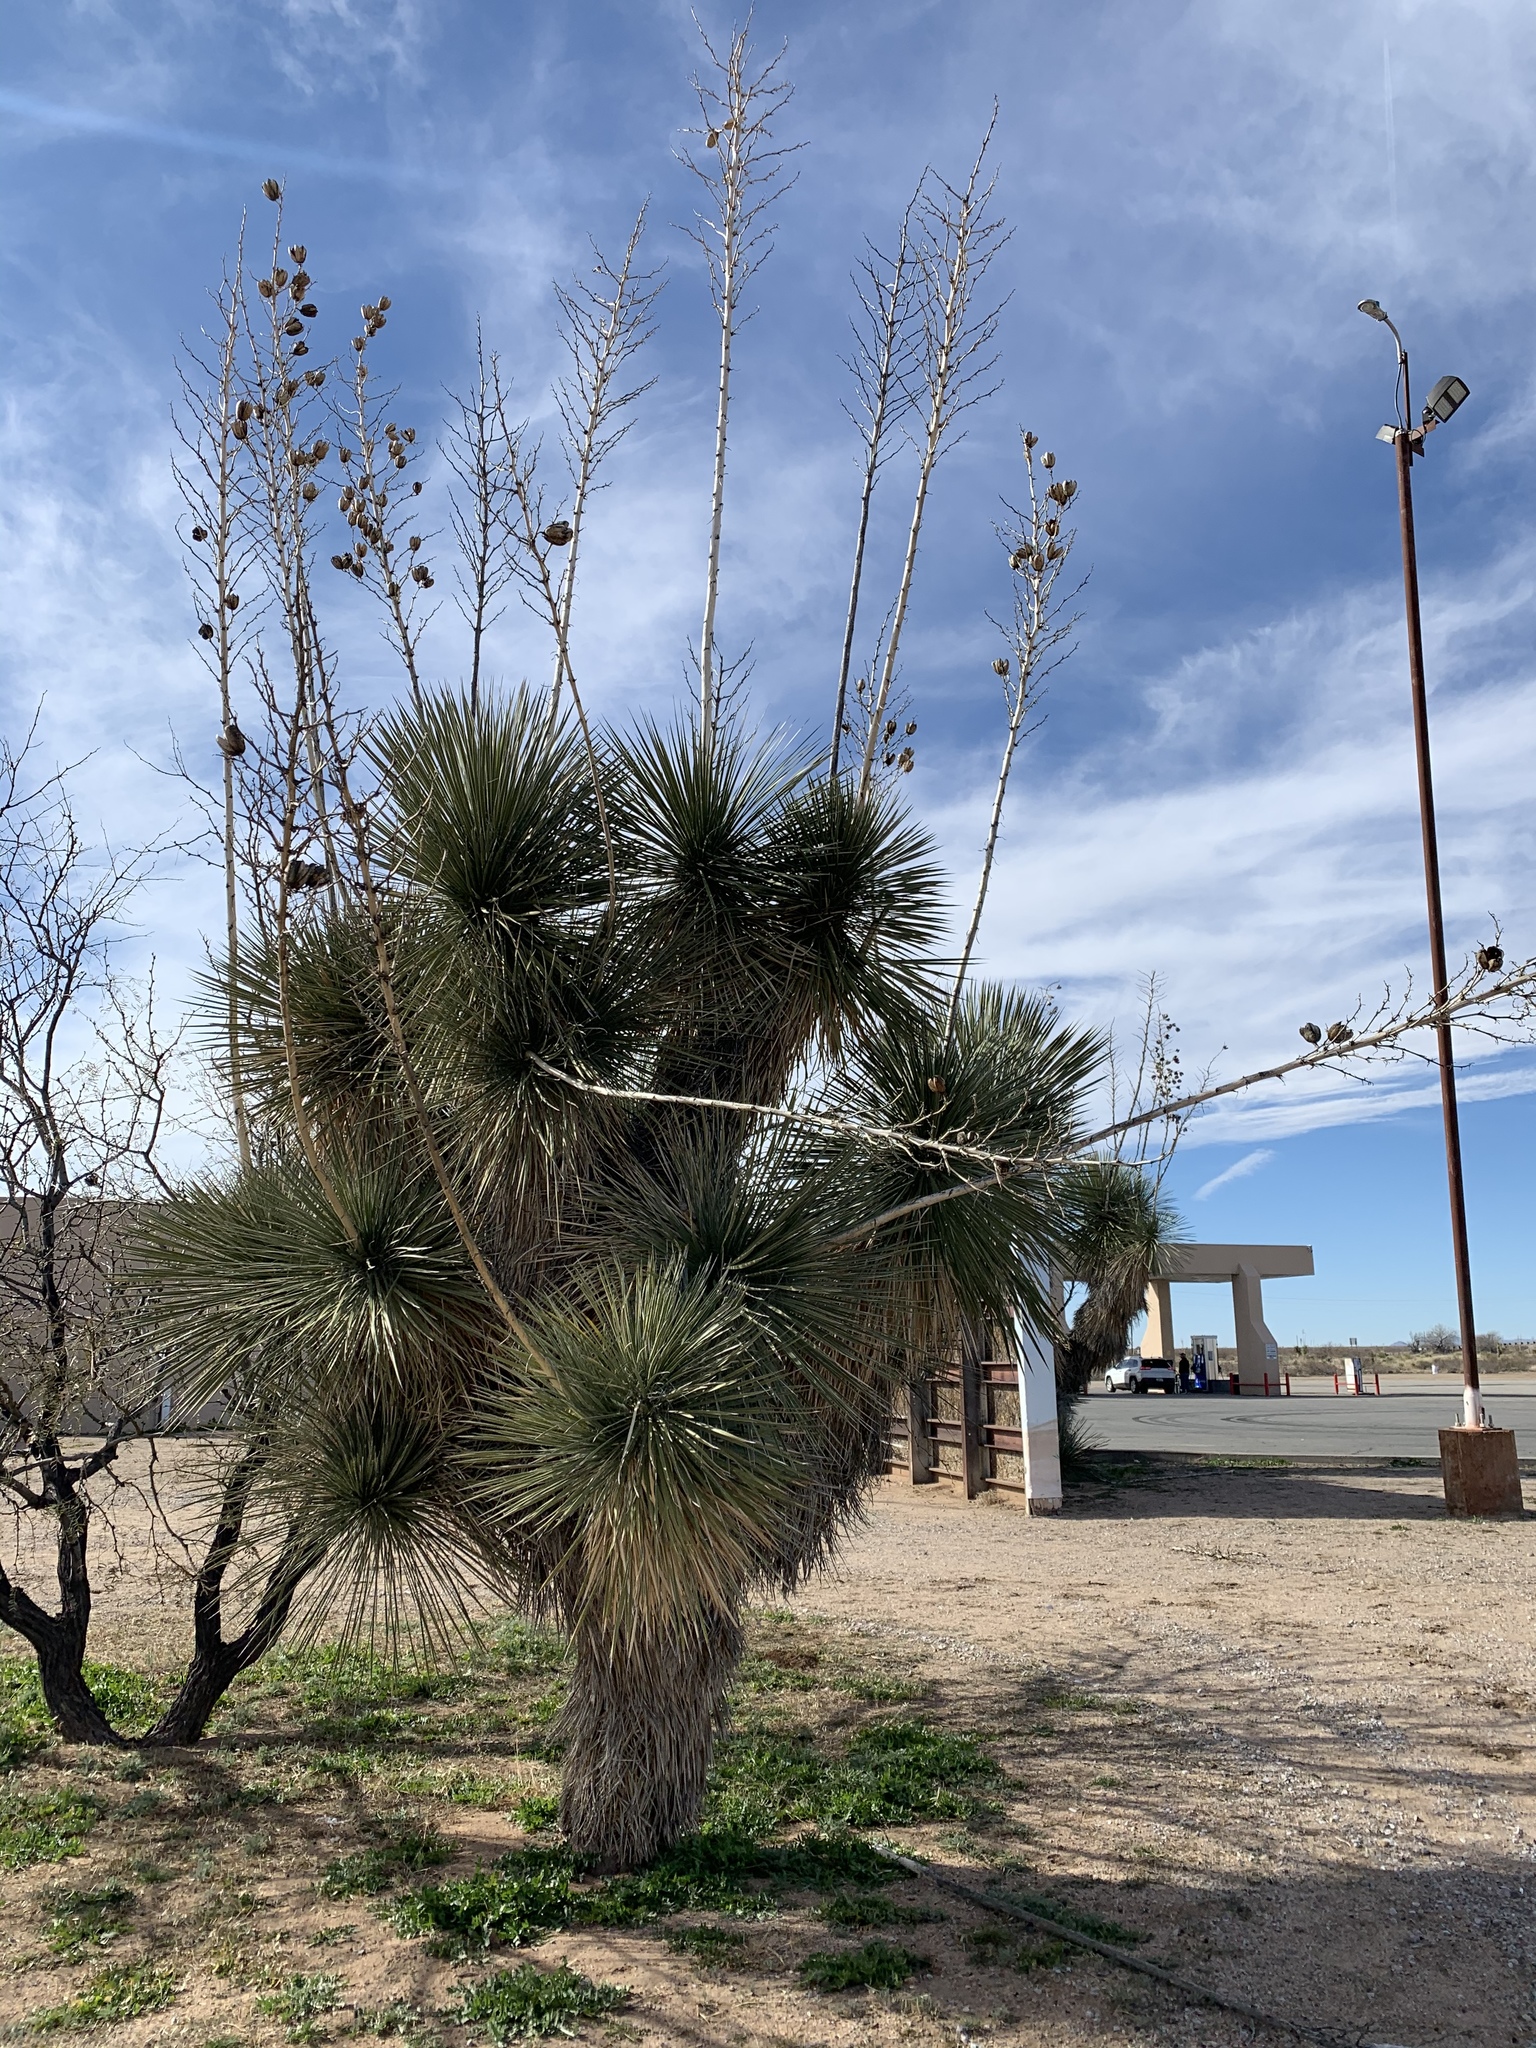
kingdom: Plantae
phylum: Tracheophyta
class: Liliopsida
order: Asparagales
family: Asparagaceae
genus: Yucca
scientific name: Yucca elata
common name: Palmella
